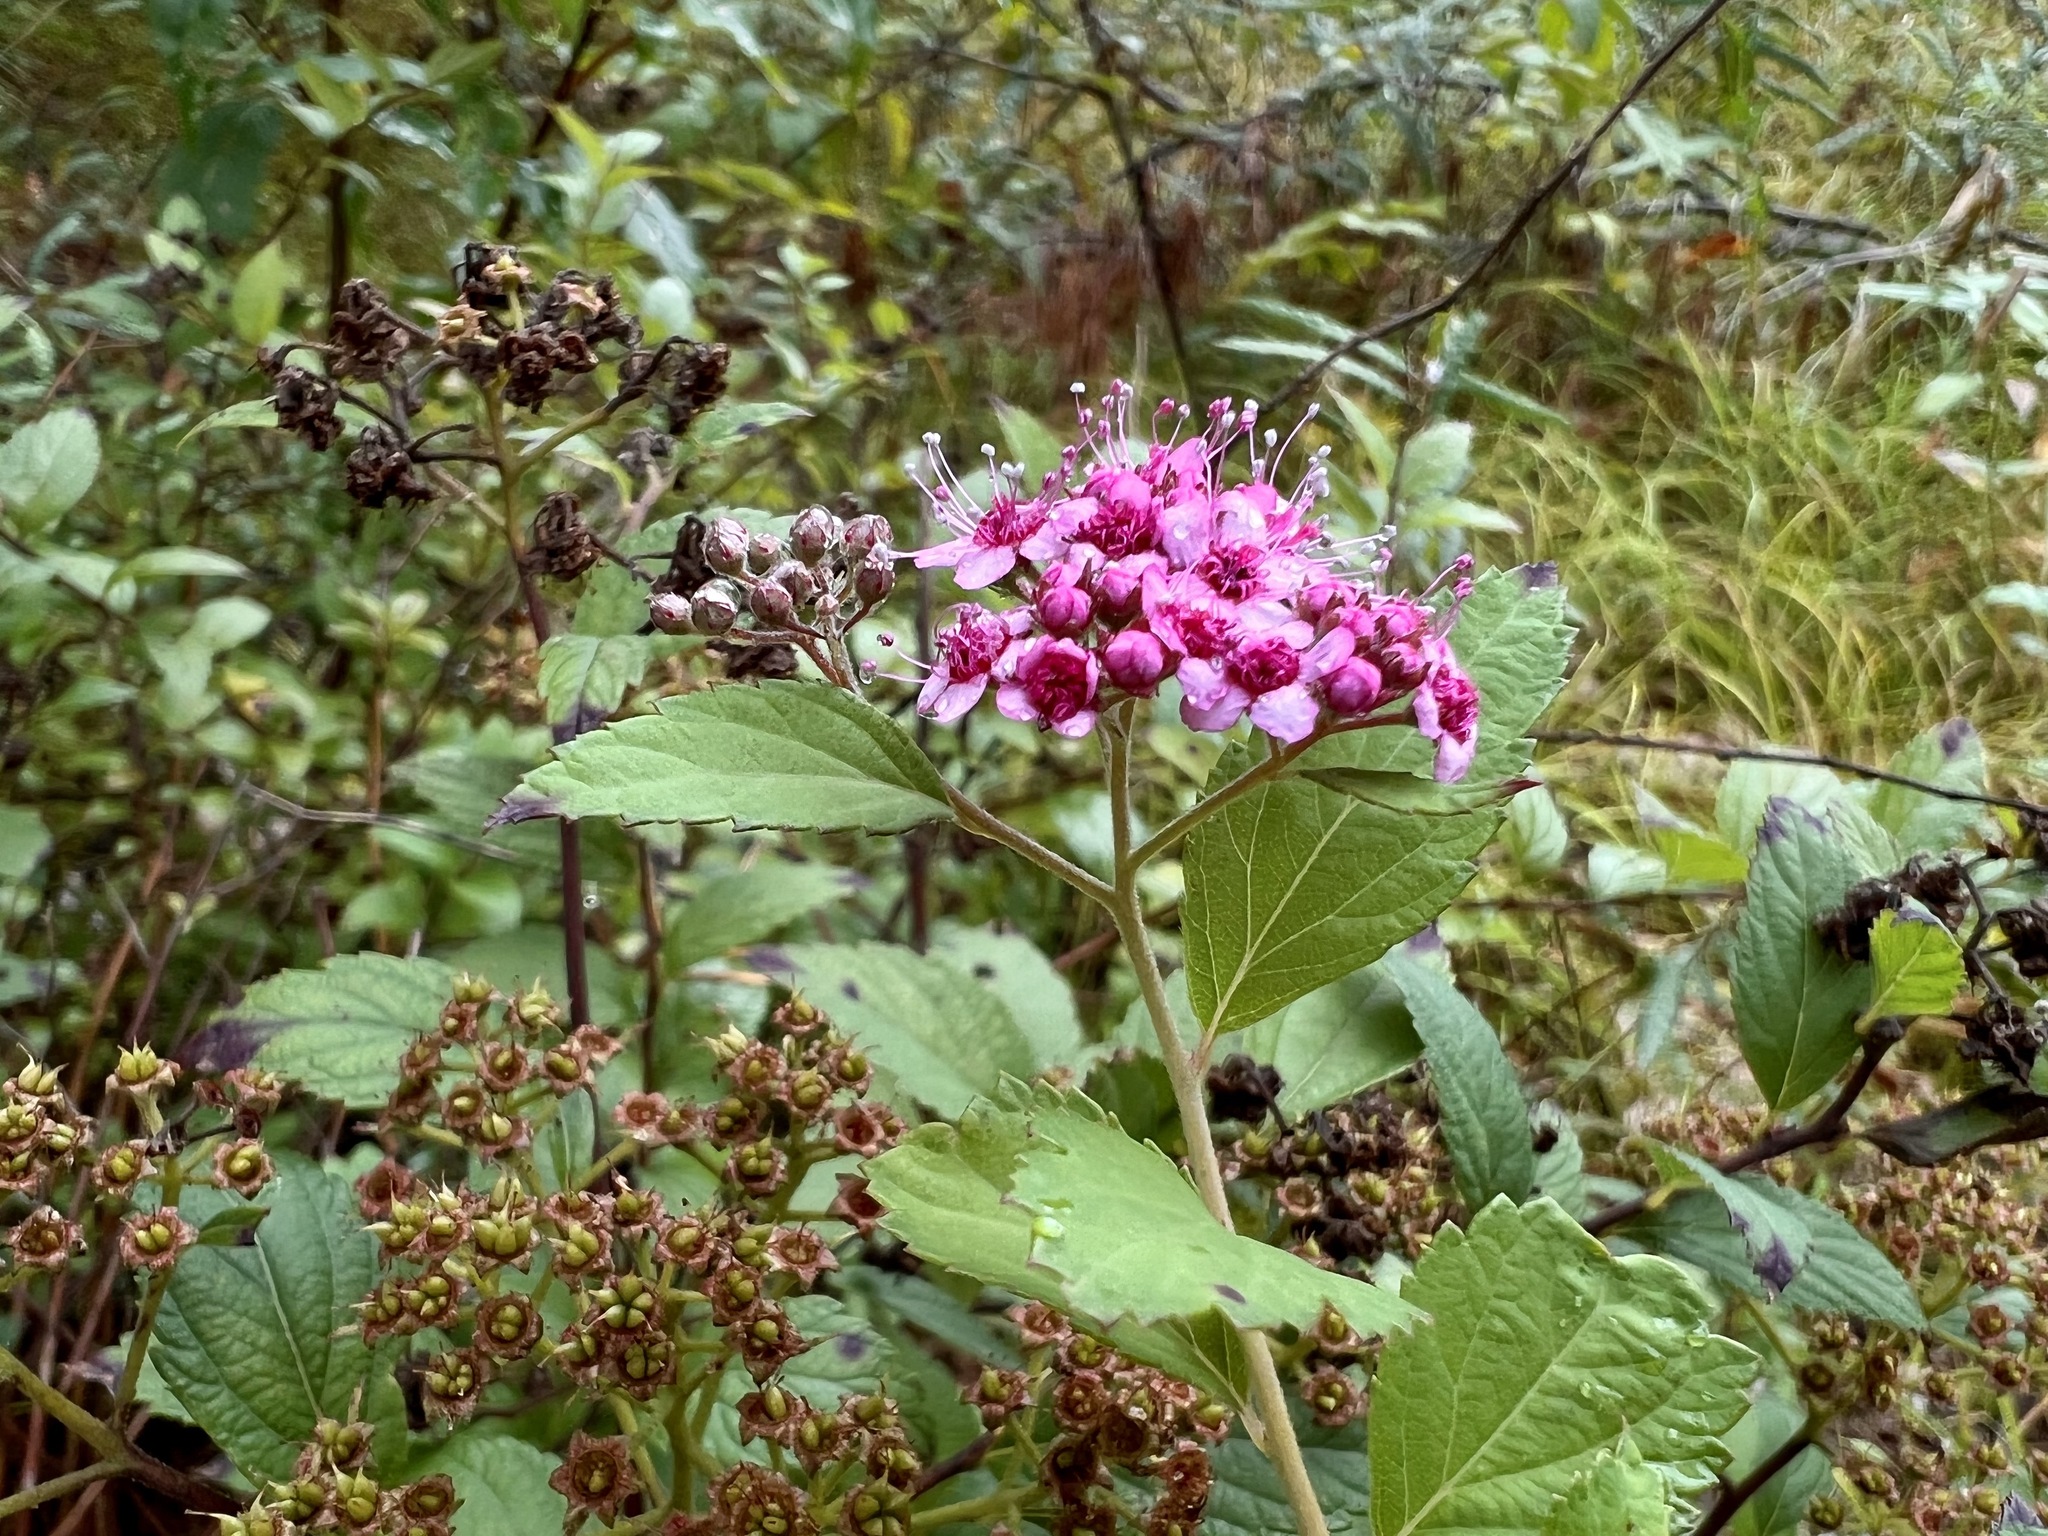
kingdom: Plantae
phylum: Tracheophyta
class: Magnoliopsida
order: Rosales
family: Rosaceae
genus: Spiraea
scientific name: Spiraea japonica
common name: Japanese spiraea
